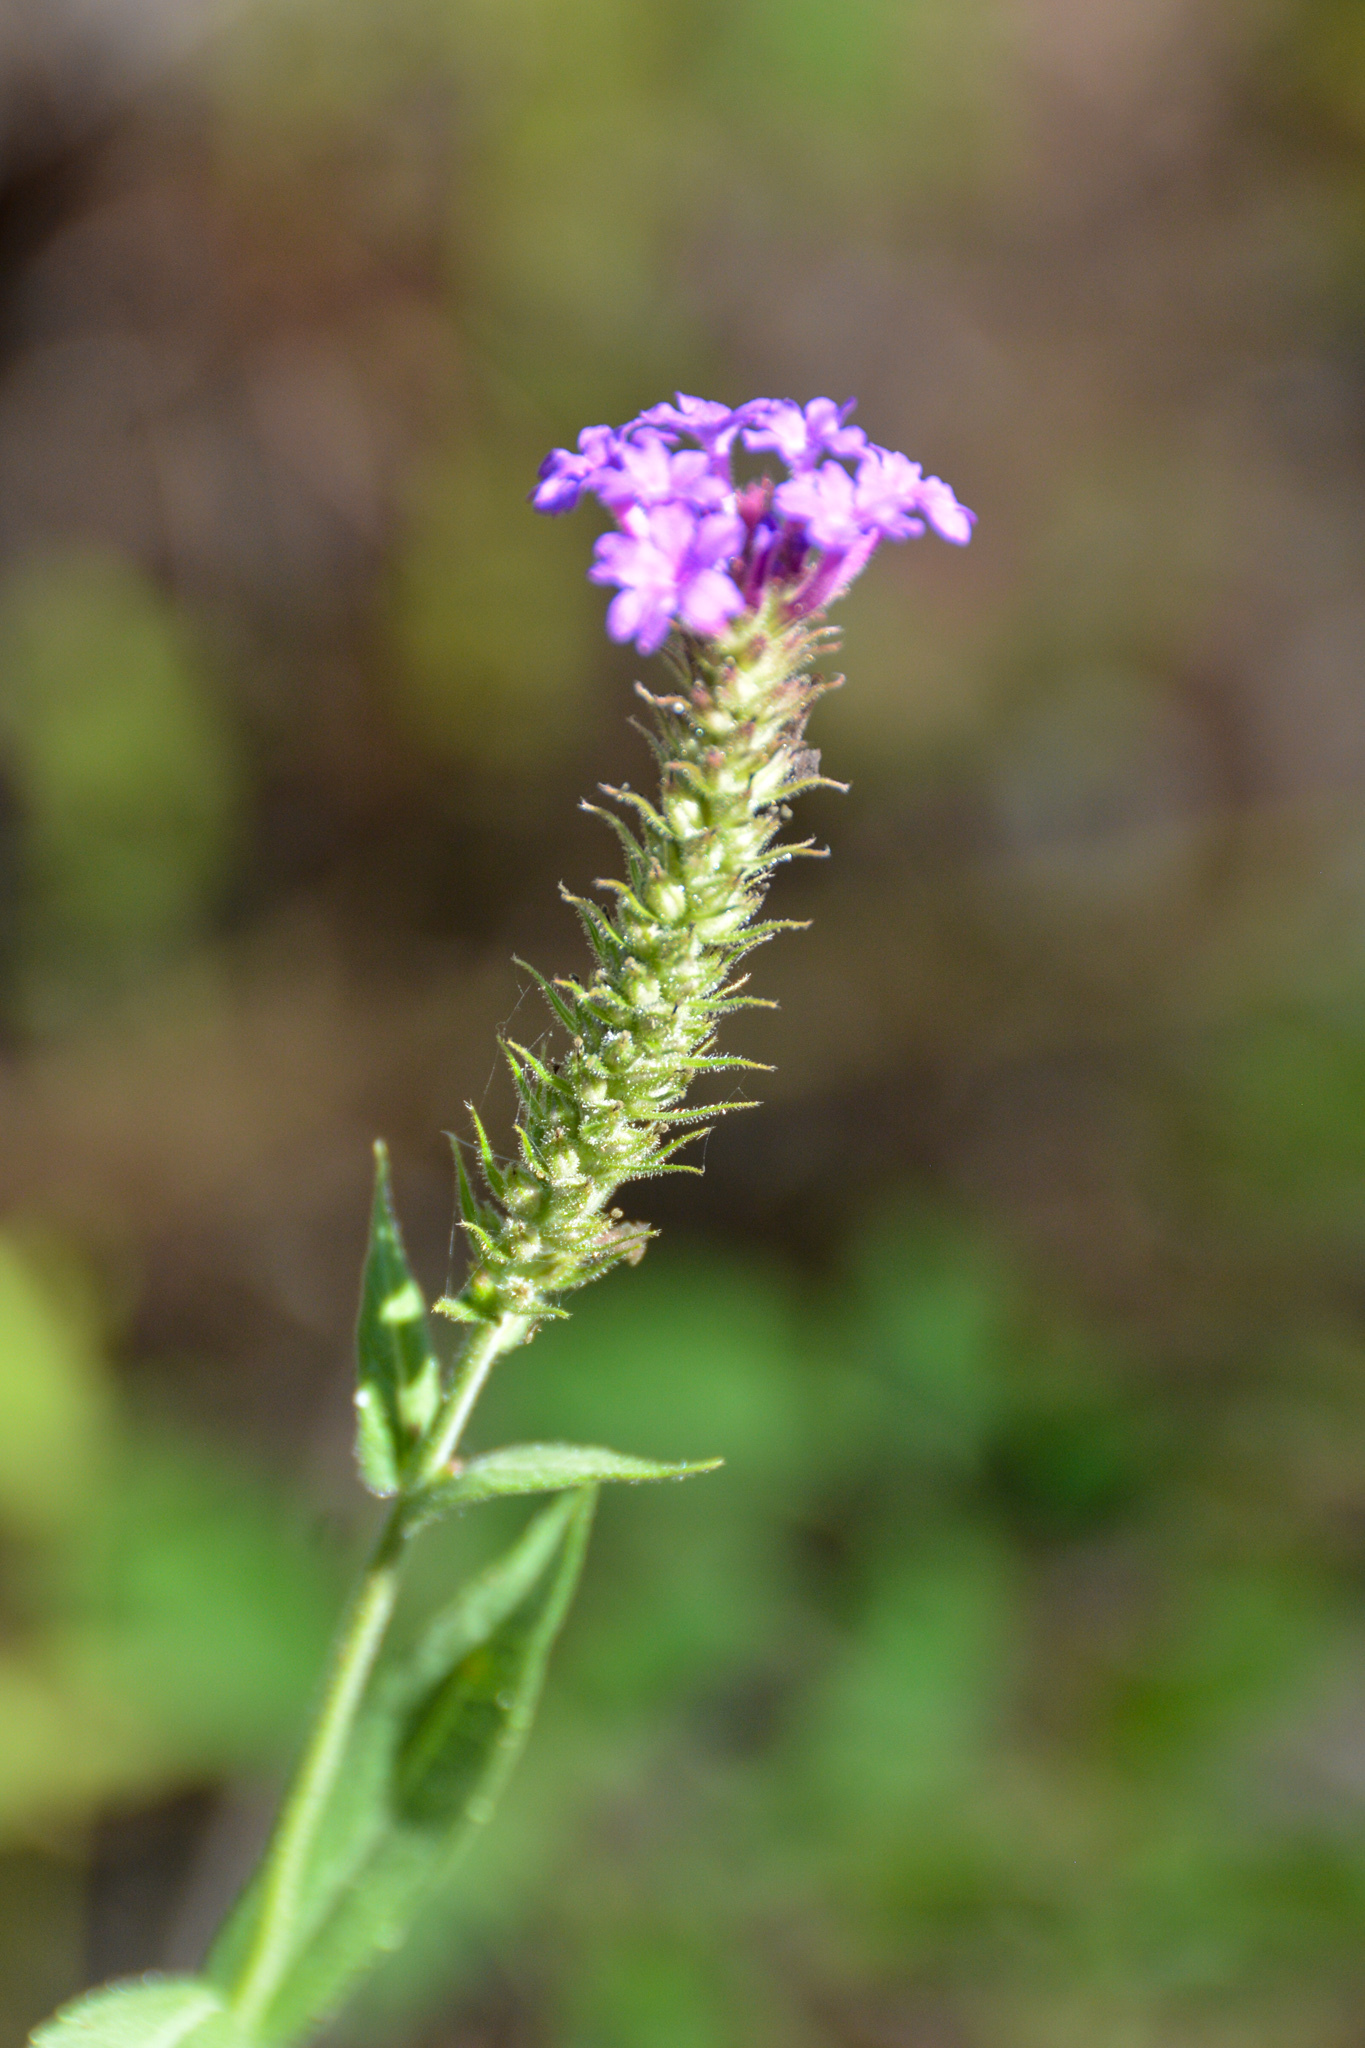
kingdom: Plantae
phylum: Tracheophyta
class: Magnoliopsida
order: Lamiales
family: Verbenaceae
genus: Verbena
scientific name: Verbena rigida
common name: Slender vervain
